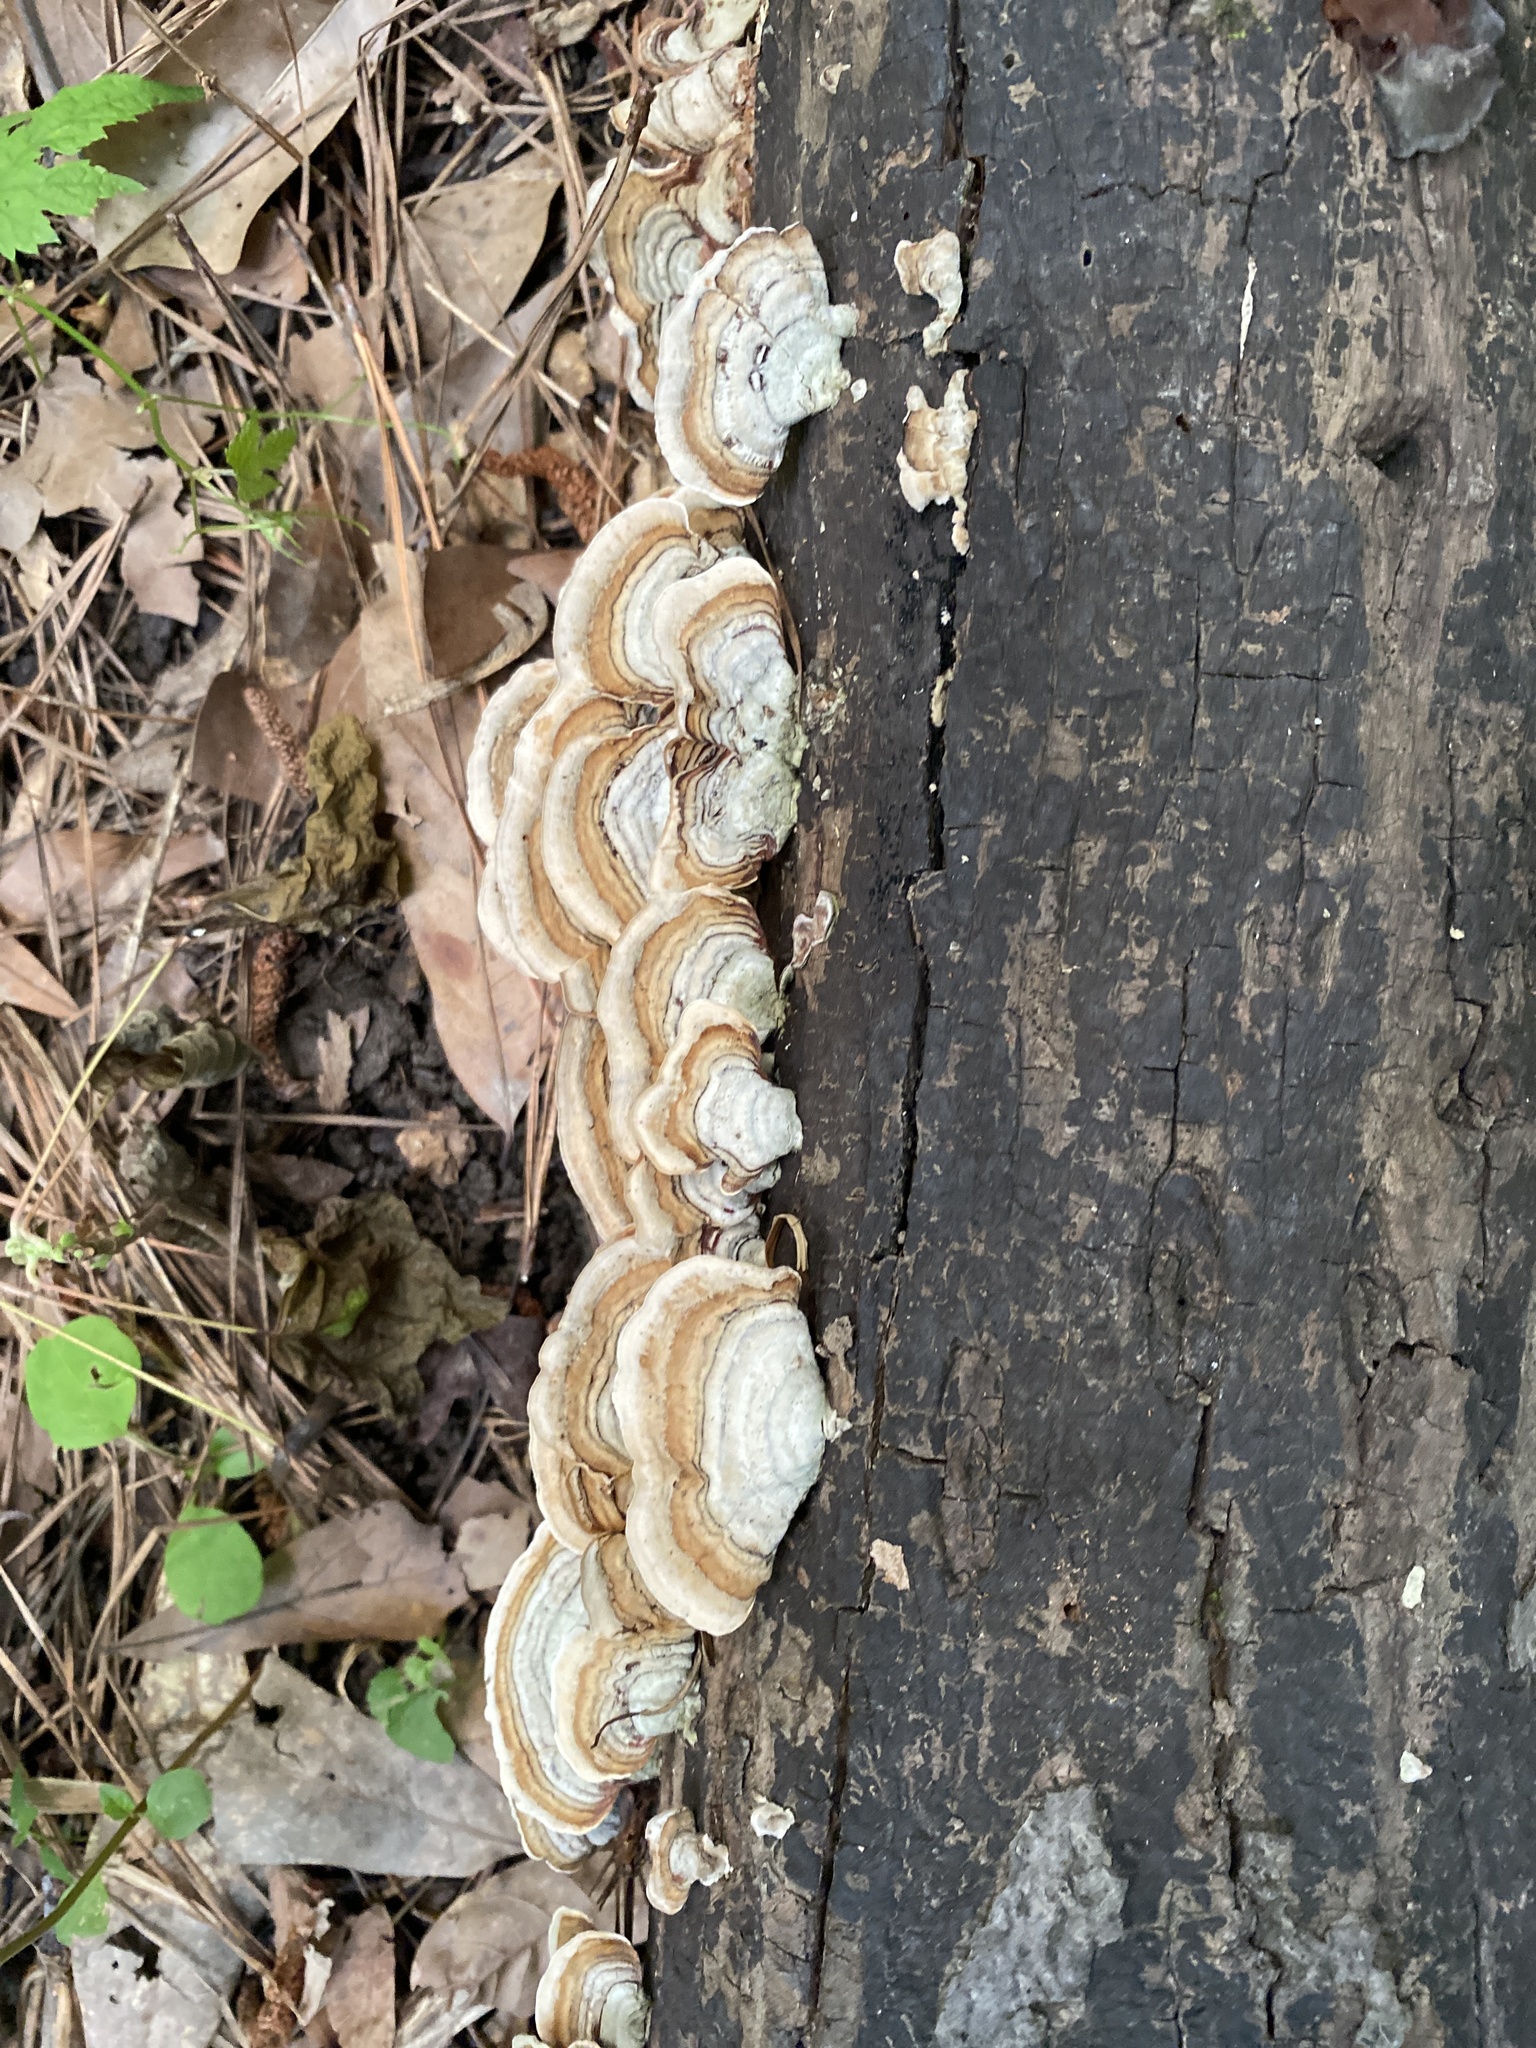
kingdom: Fungi
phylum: Basidiomycota
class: Agaricomycetes
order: Russulales
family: Stereaceae
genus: Stereum
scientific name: Stereum lobatum
